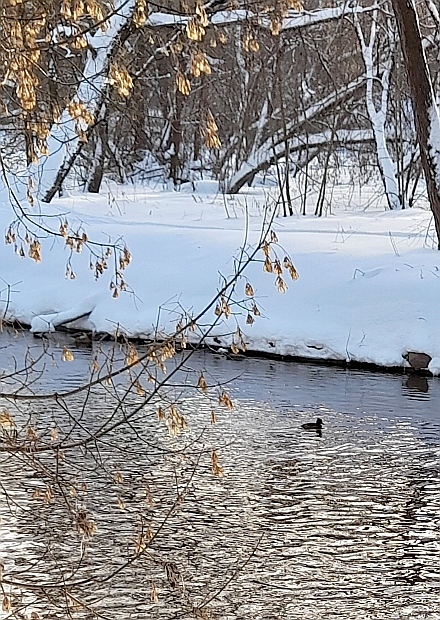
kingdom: Plantae
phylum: Tracheophyta
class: Magnoliopsida
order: Sapindales
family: Sapindaceae
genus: Acer
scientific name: Acer negundo
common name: Ashleaf maple
